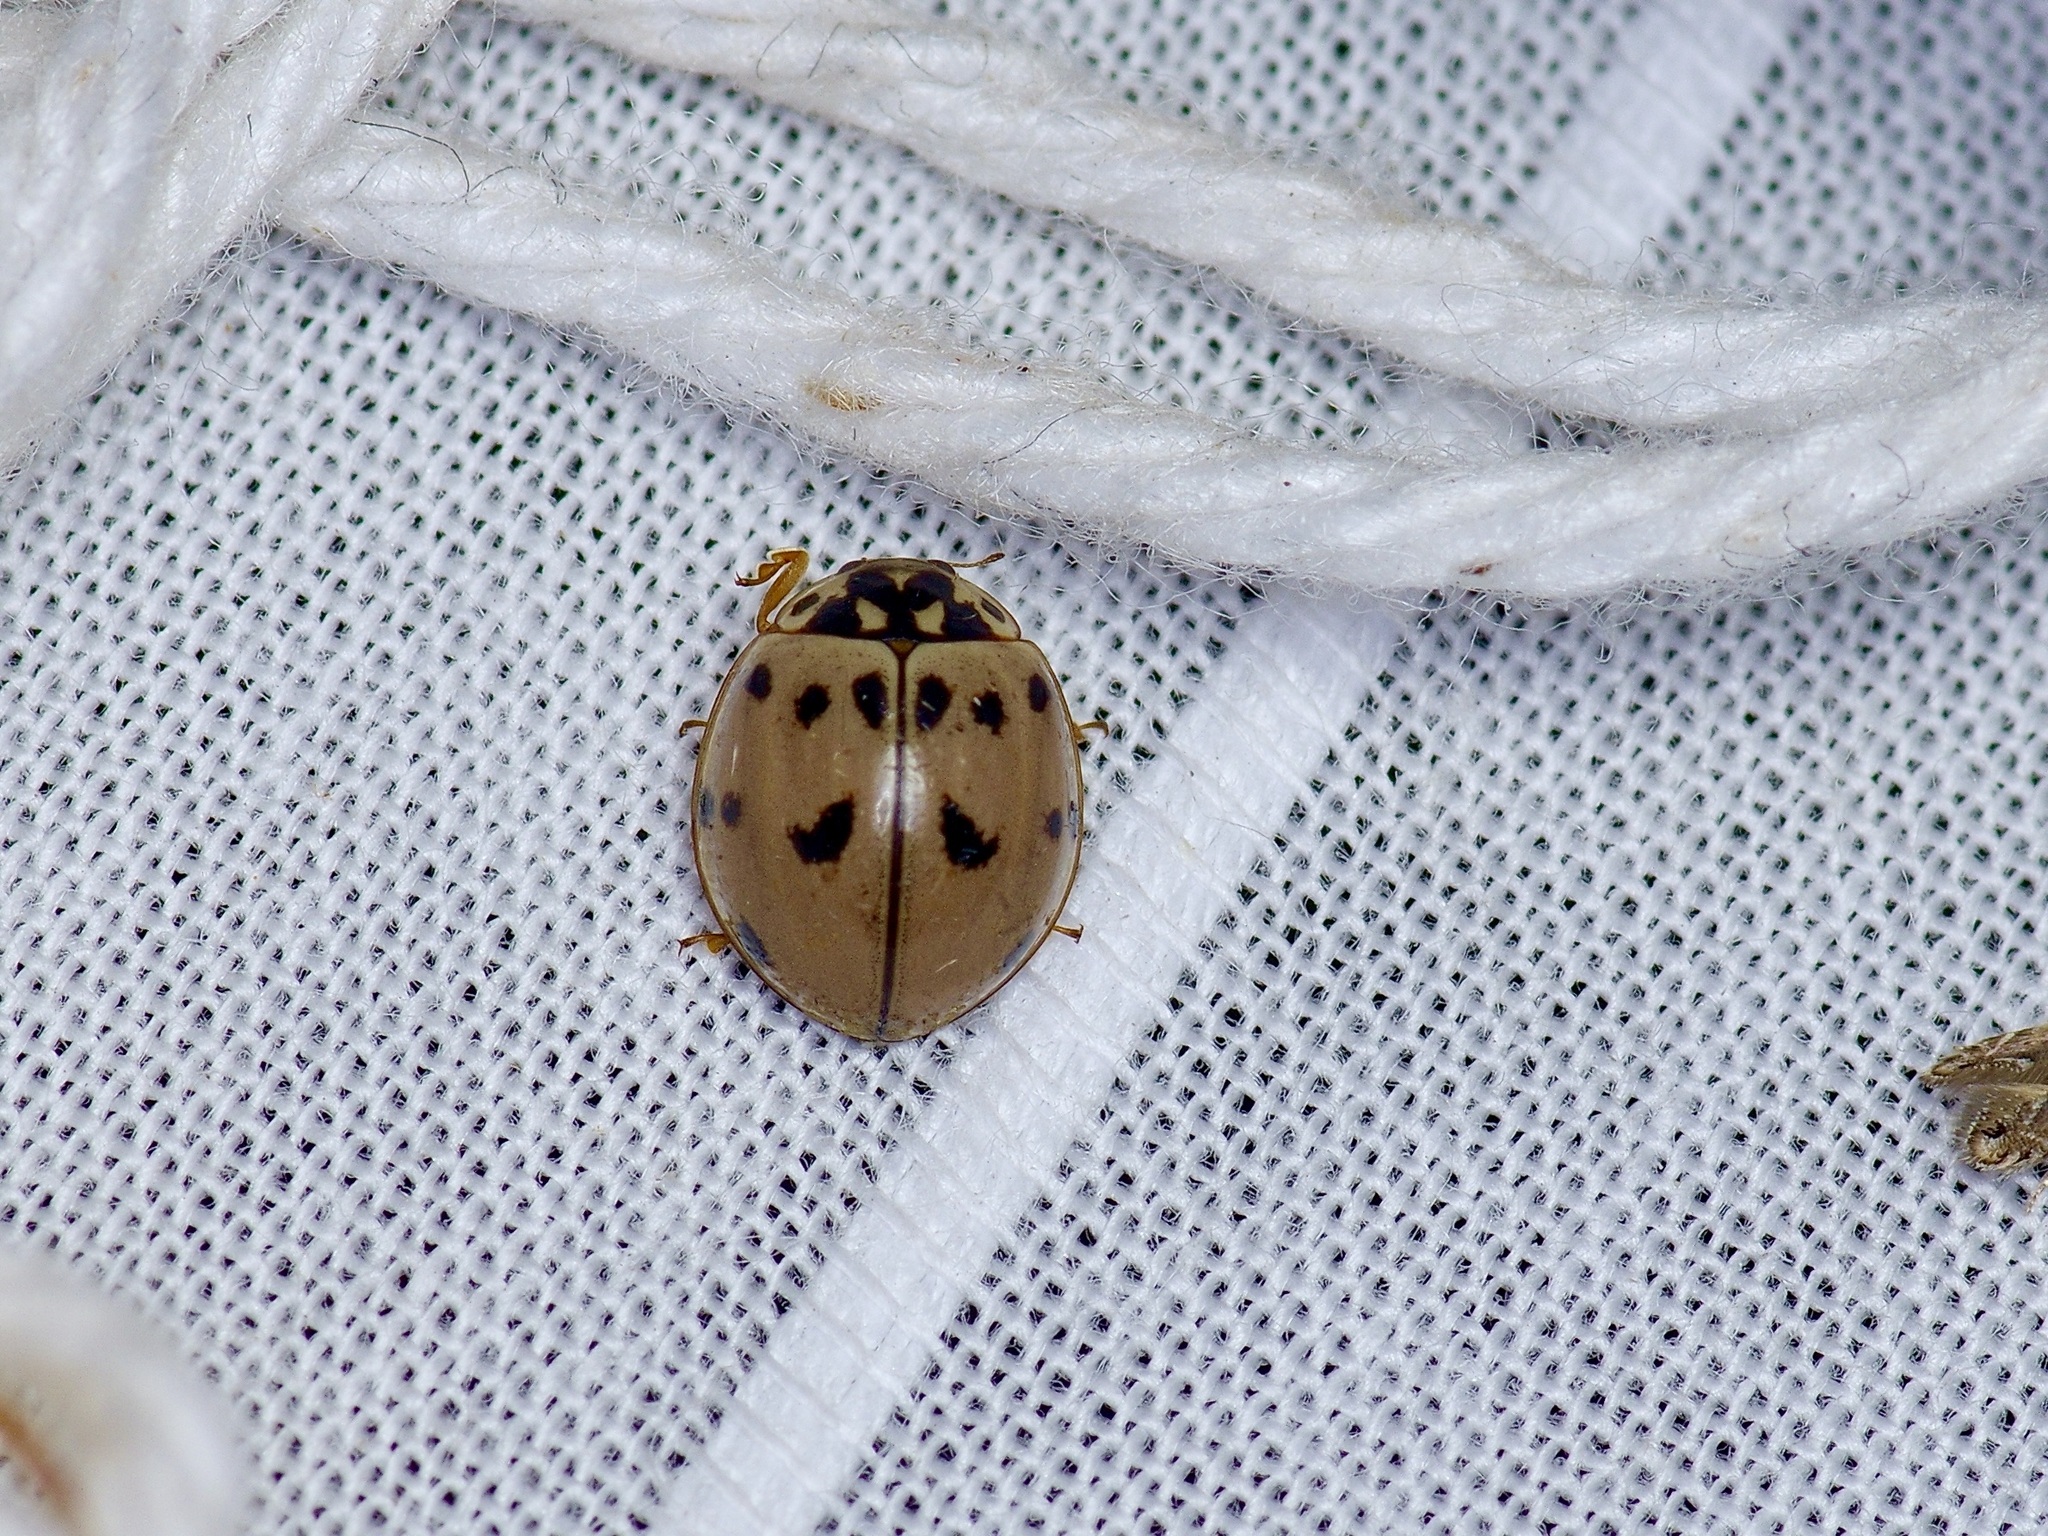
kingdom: Animalia
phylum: Arthropoda
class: Insecta
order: Coleoptera
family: Coccinellidae
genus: Olla
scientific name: Olla v-nigrum
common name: Ashy gray lady beetle
